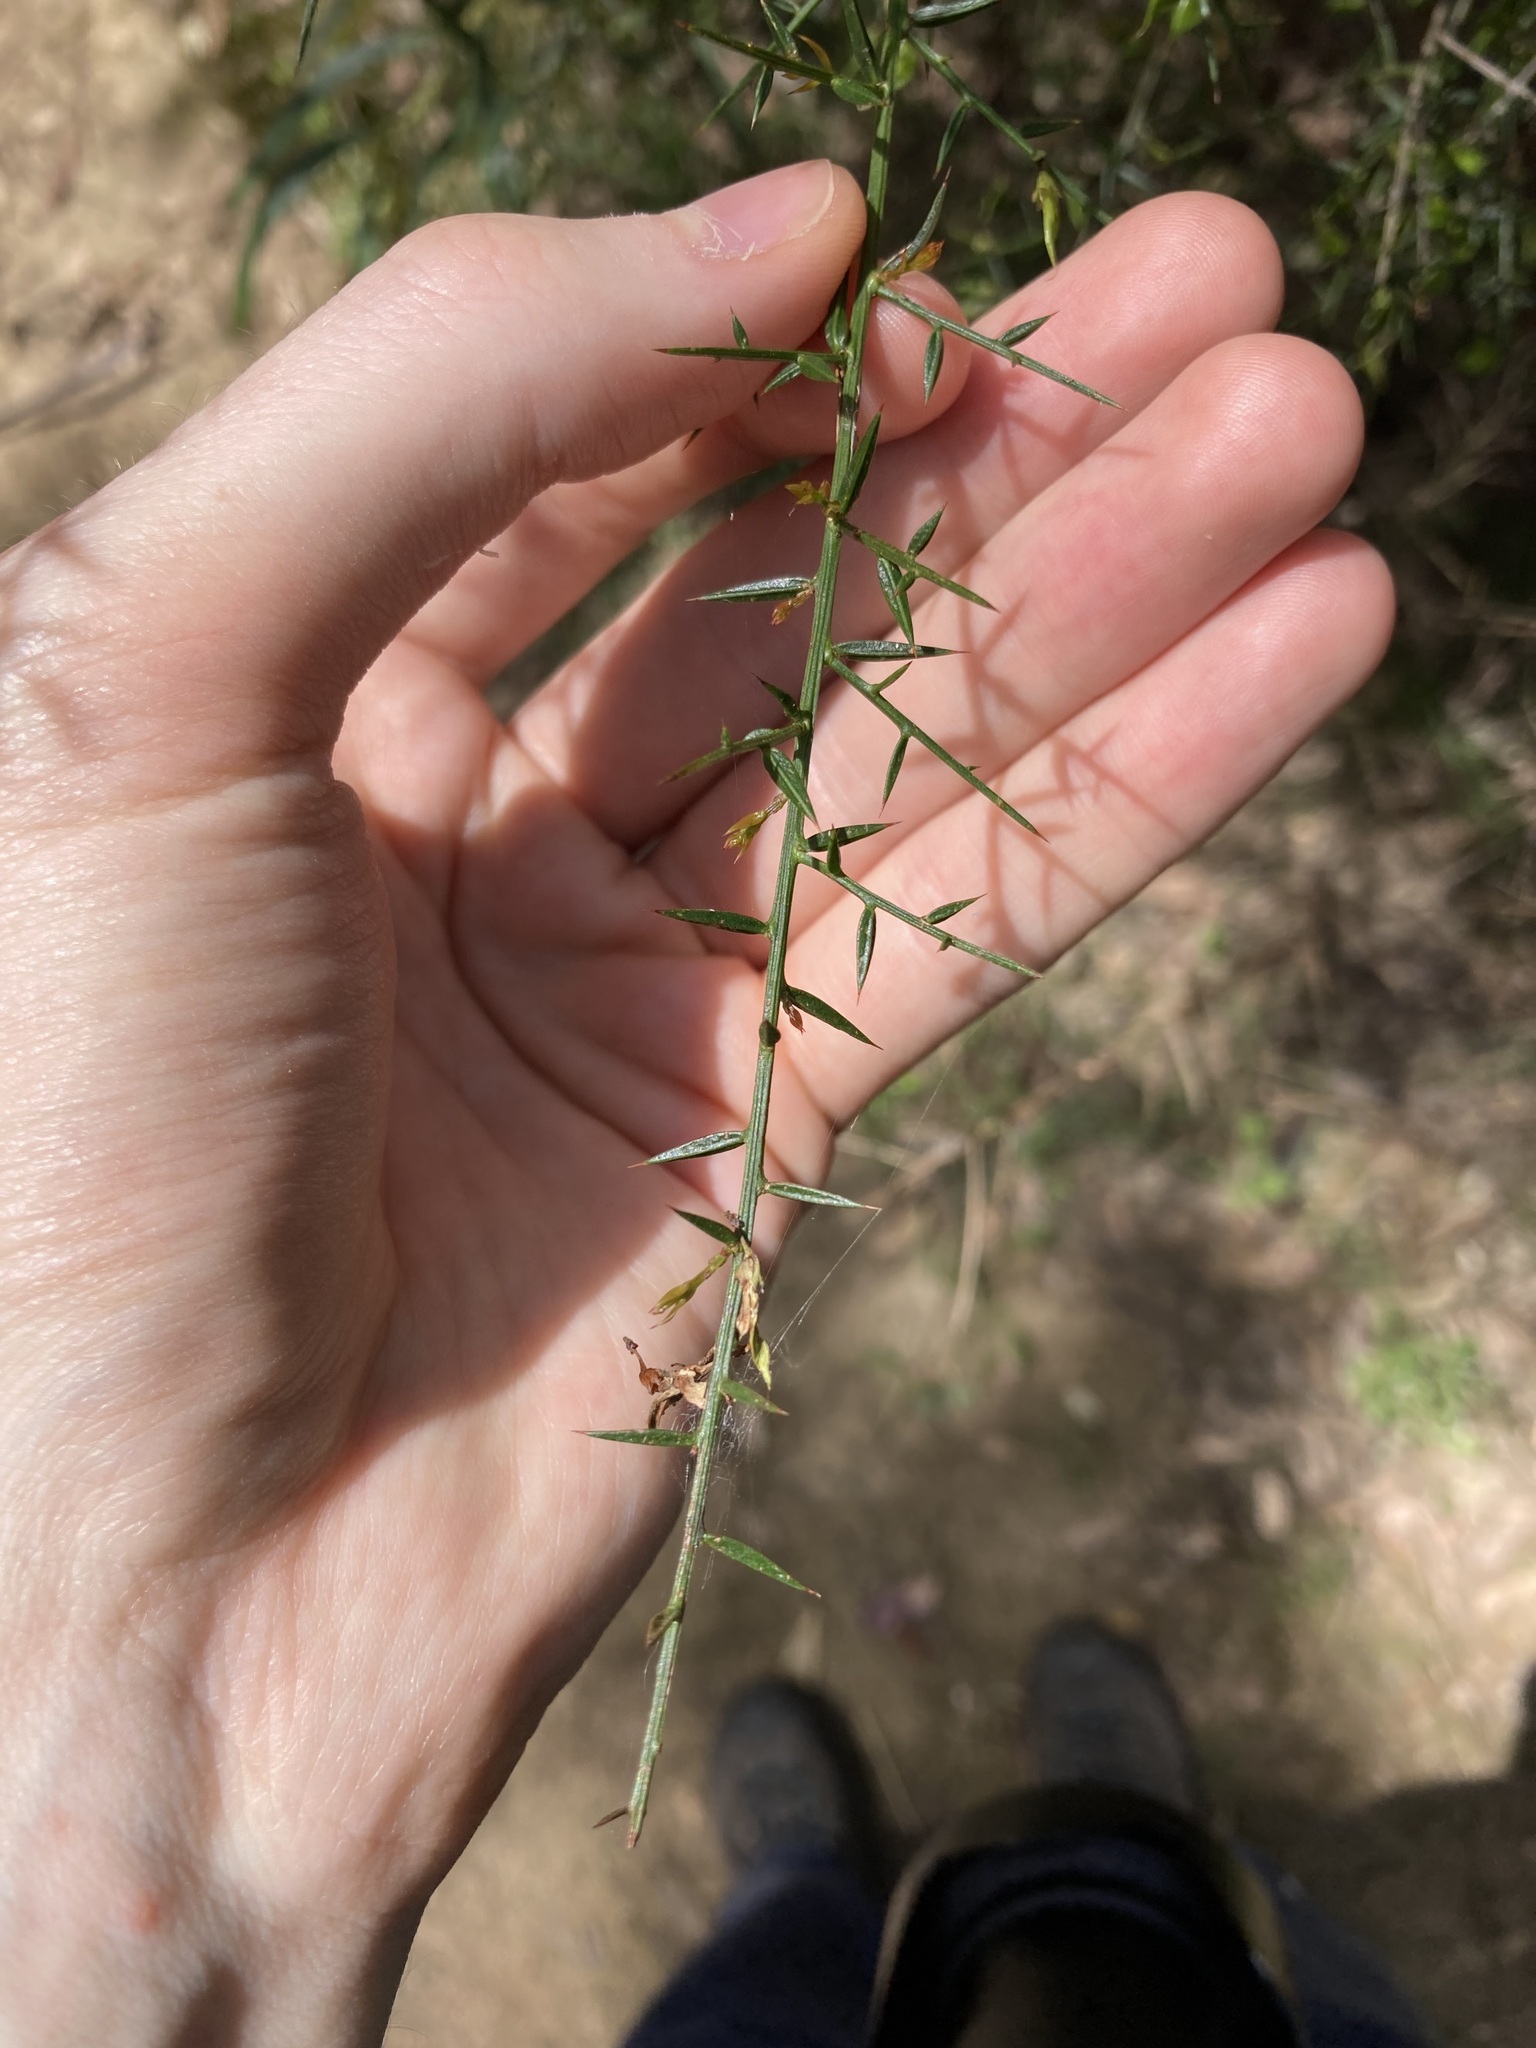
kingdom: Plantae
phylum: Tracheophyta
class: Magnoliopsida
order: Fabales
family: Fabaceae
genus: Daviesia
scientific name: Daviesia ulicifolia
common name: Gorse bitter-pea
